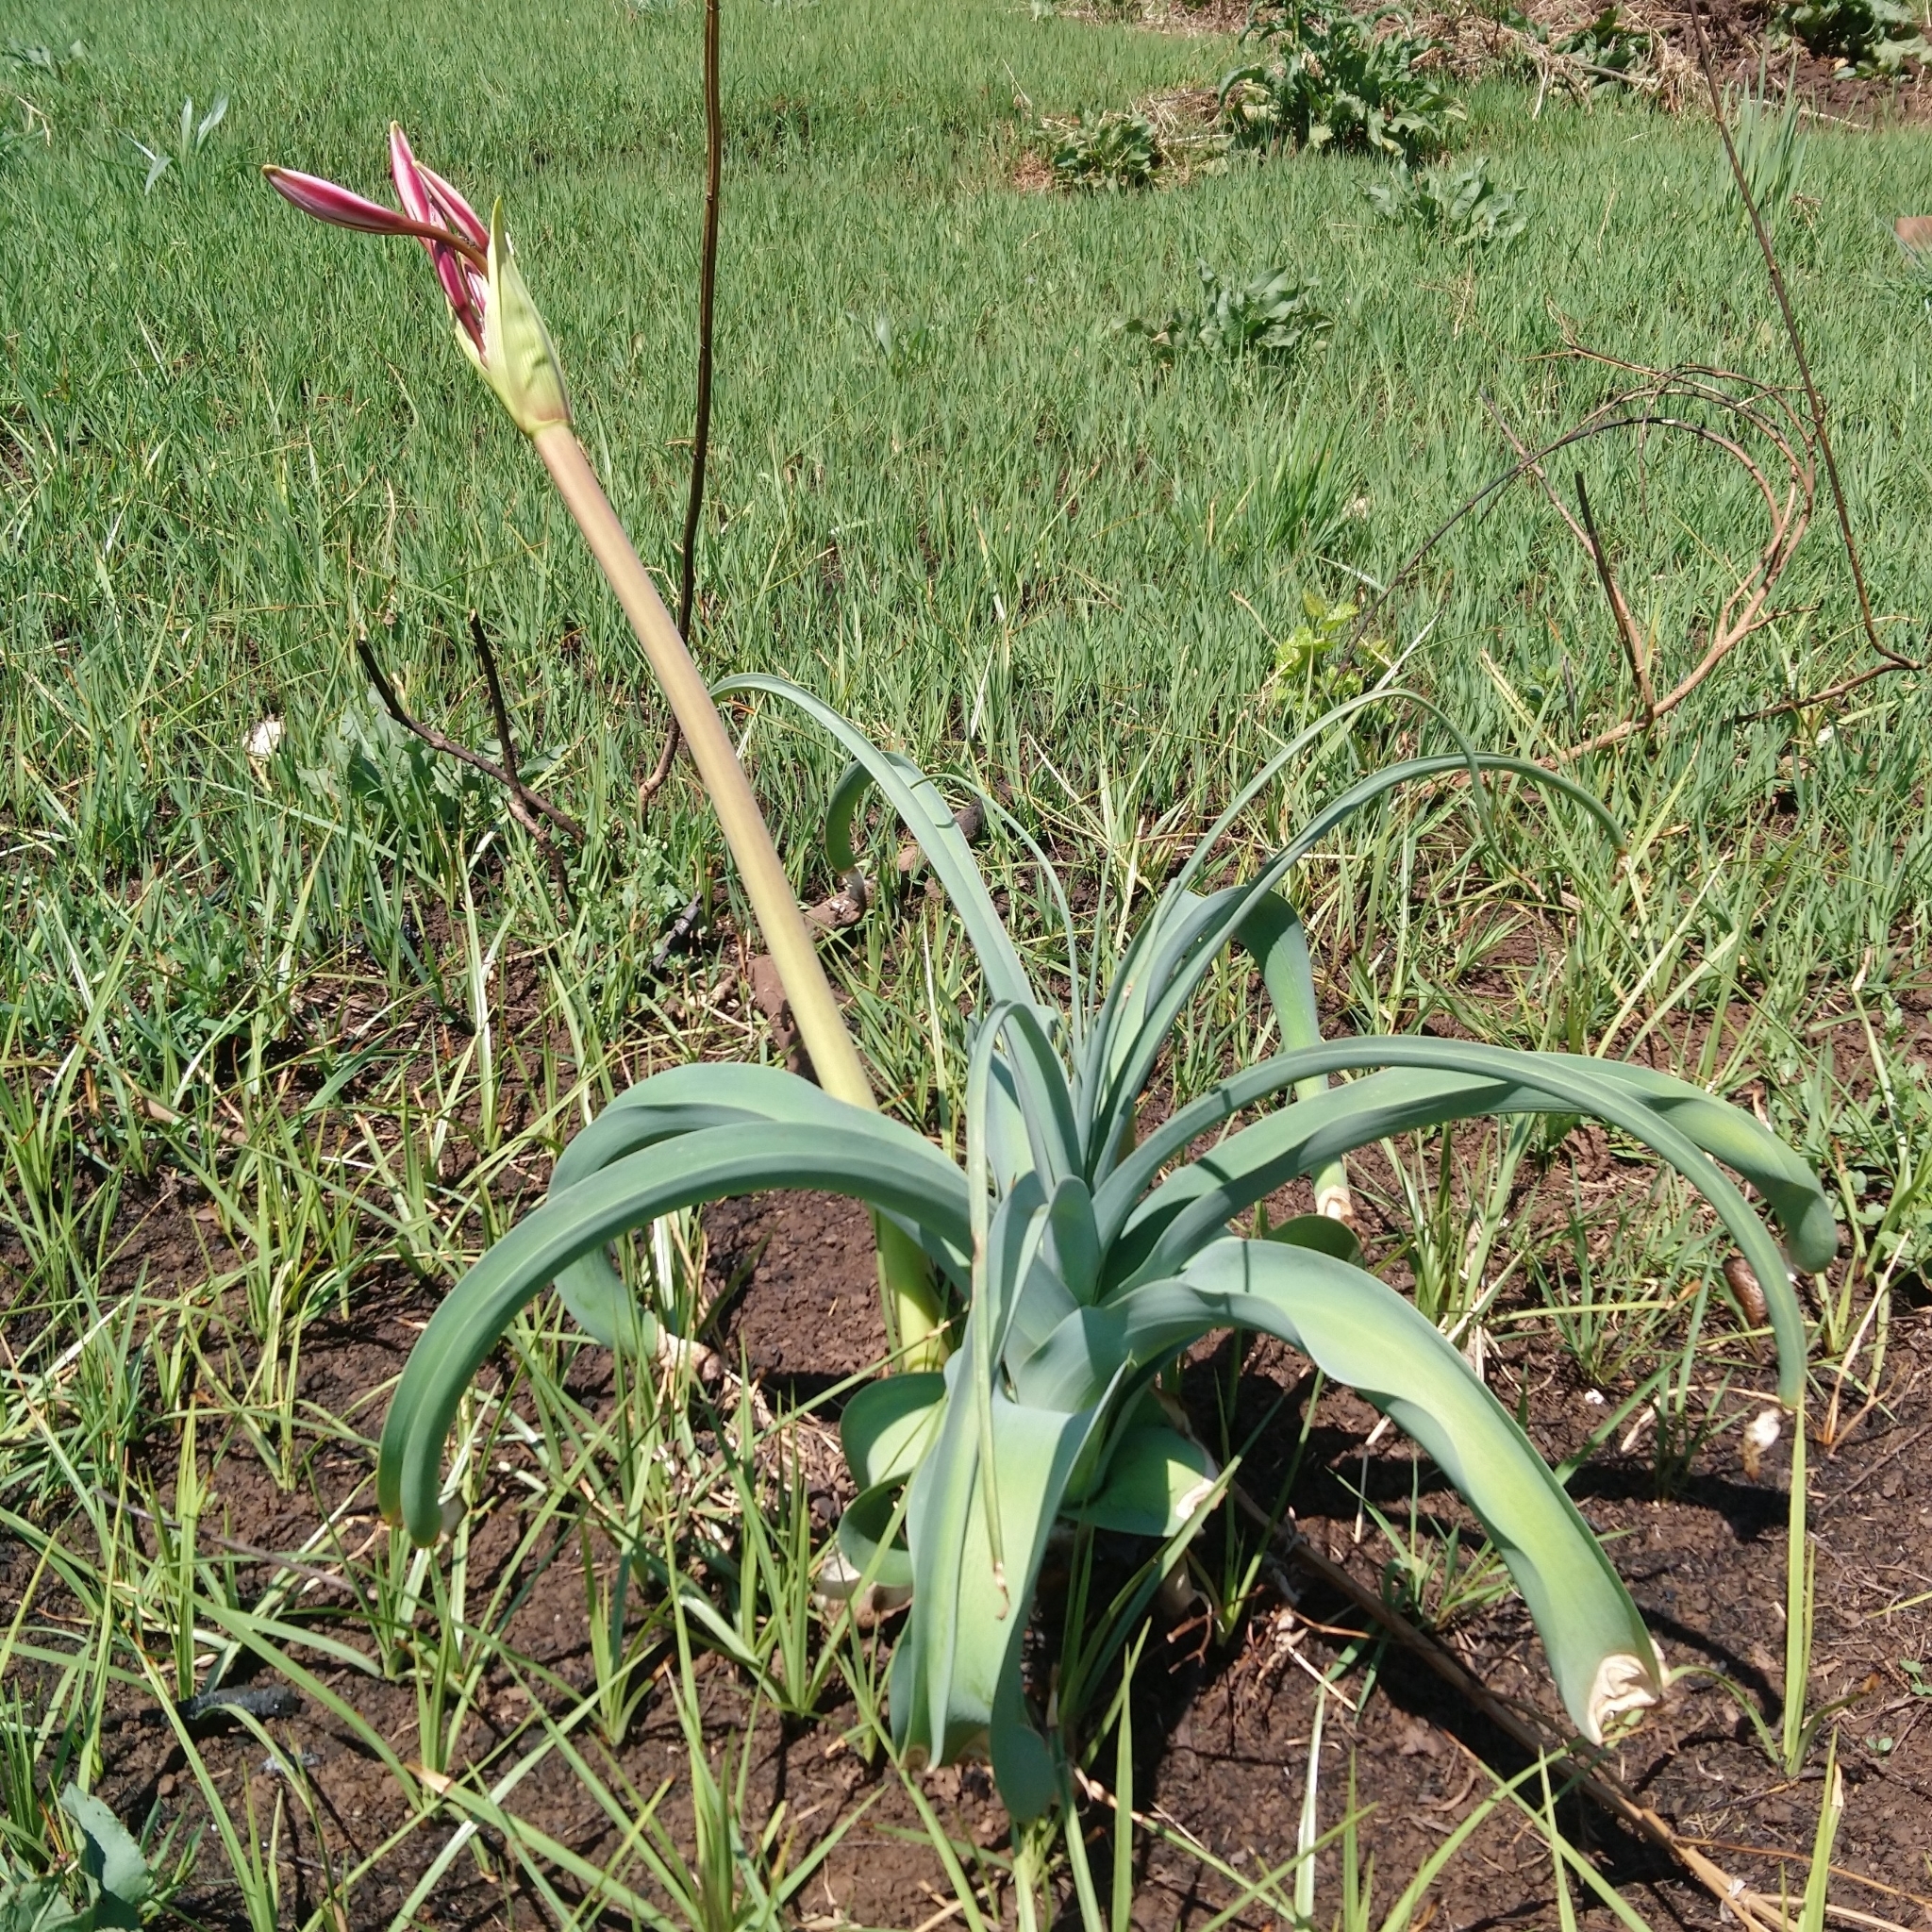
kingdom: Plantae
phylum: Tracheophyta
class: Liliopsida
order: Asparagales
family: Amaryllidaceae
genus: Crinum
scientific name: Crinum bulbispermum
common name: Hardy swamplily
